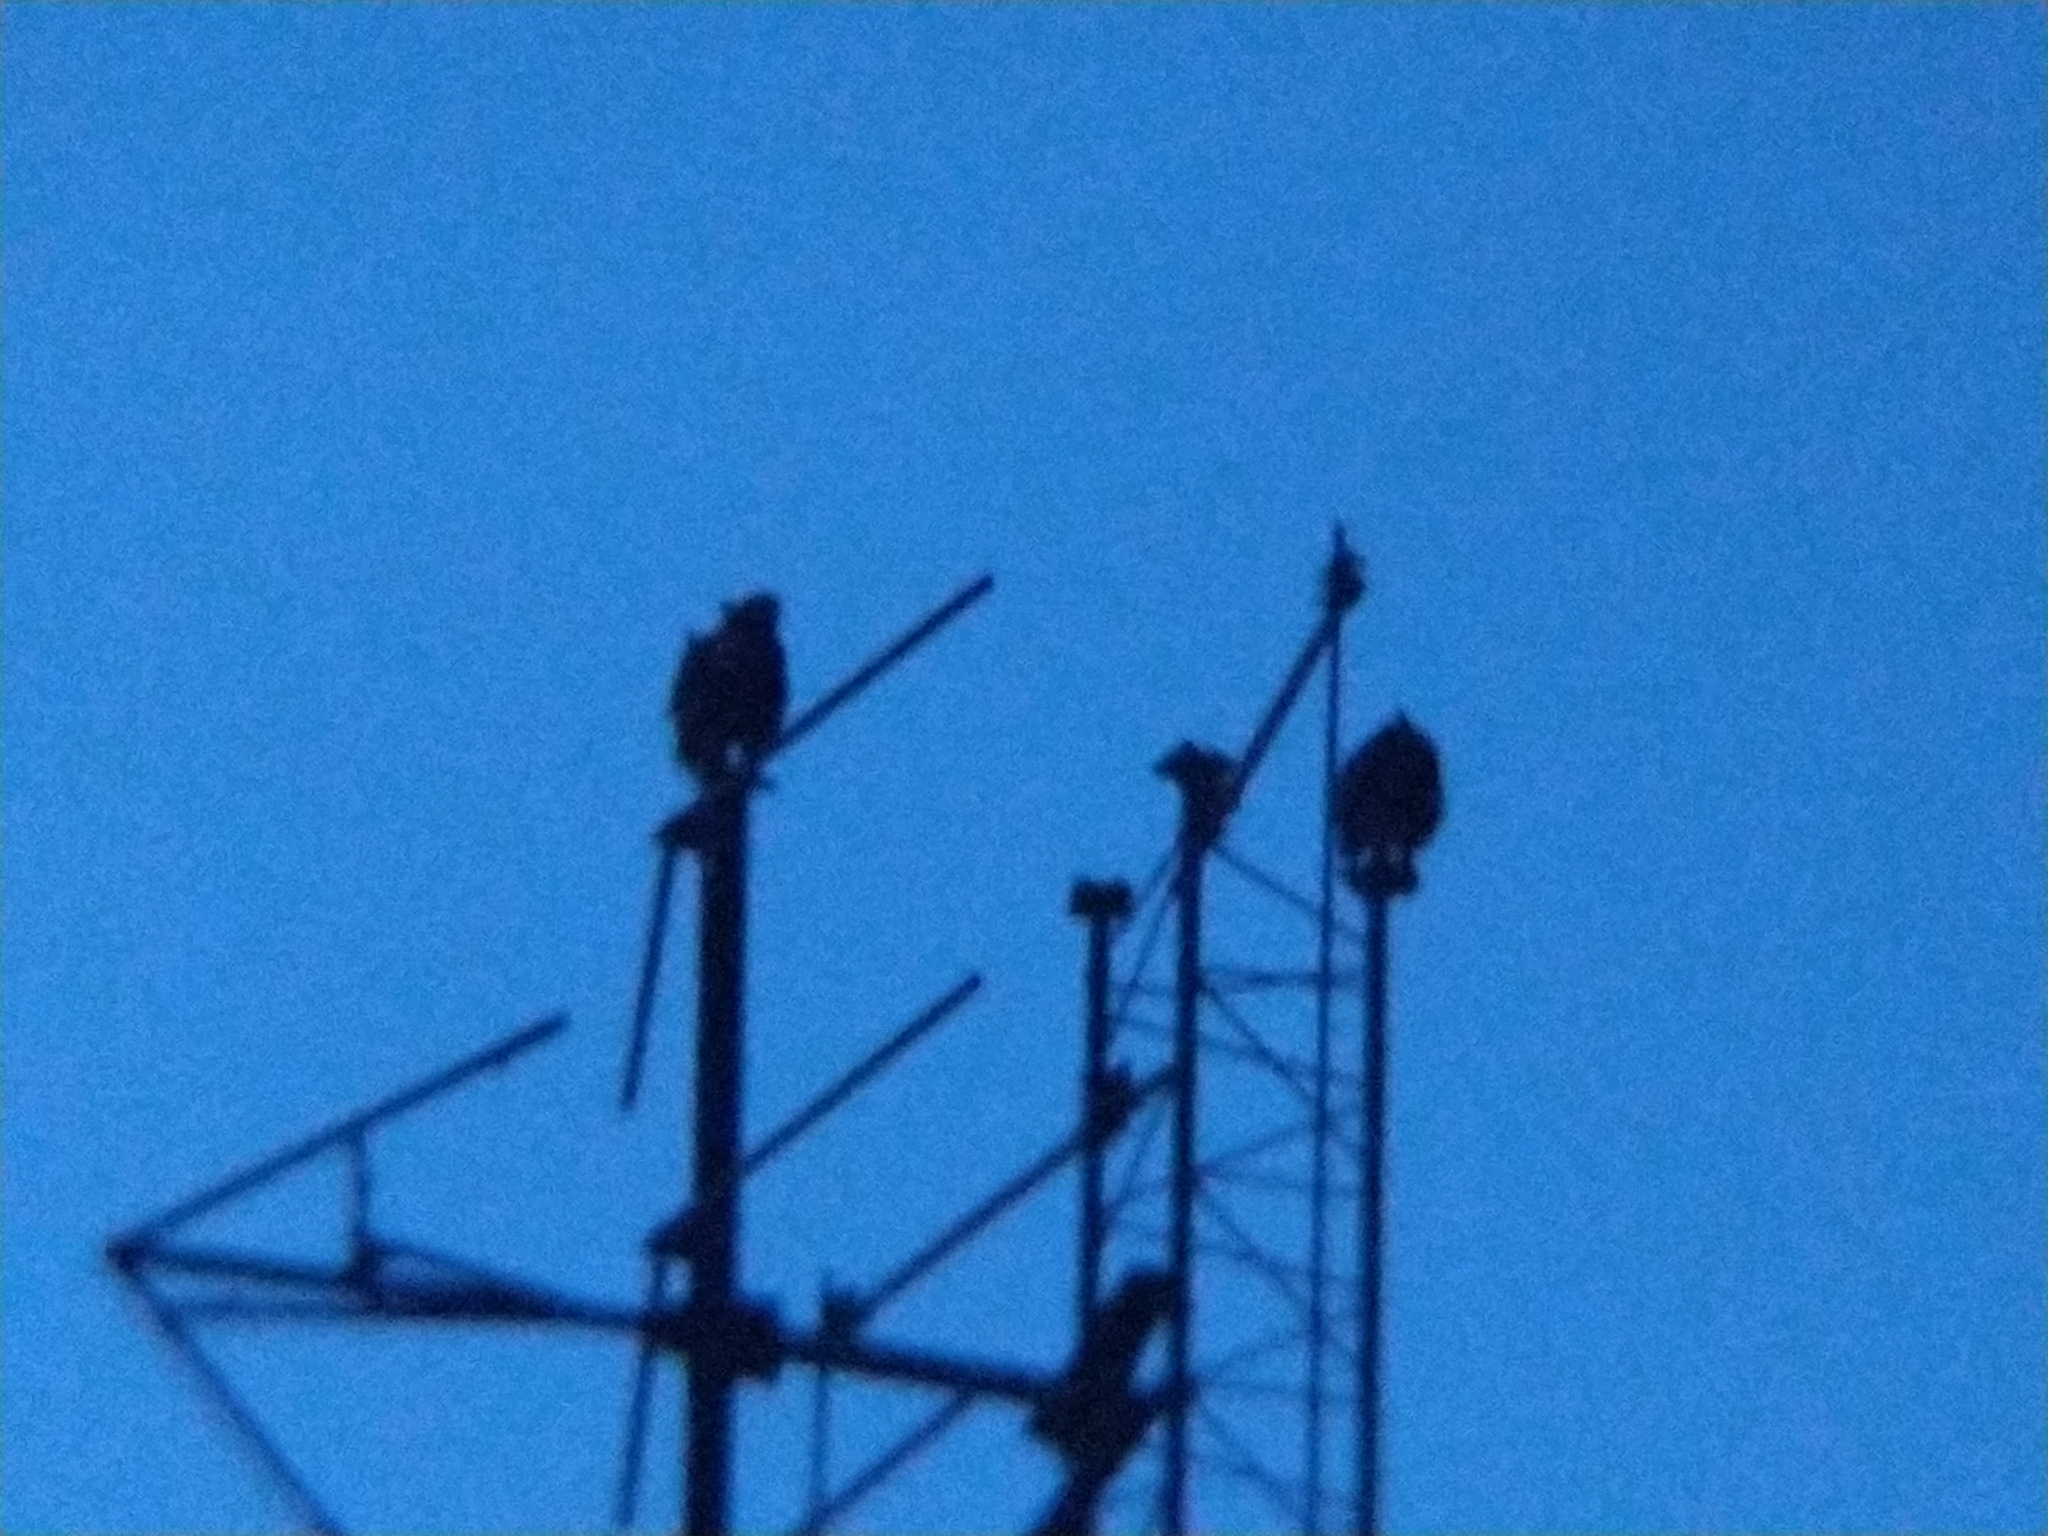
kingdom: Animalia
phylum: Chordata
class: Aves
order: Strigiformes
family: Strigidae
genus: Bubo
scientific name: Bubo virginianus
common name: Great horned owl
